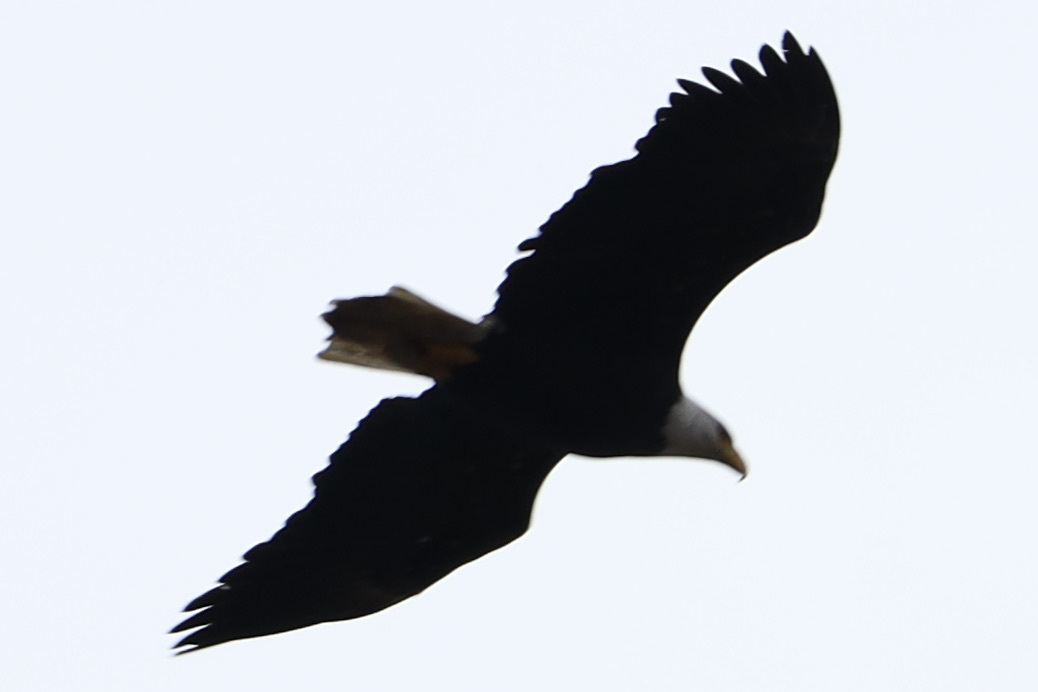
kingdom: Animalia
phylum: Chordata
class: Aves
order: Accipitriformes
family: Accipitridae
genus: Haliaeetus
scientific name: Haliaeetus leucocephalus
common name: Bald eagle
